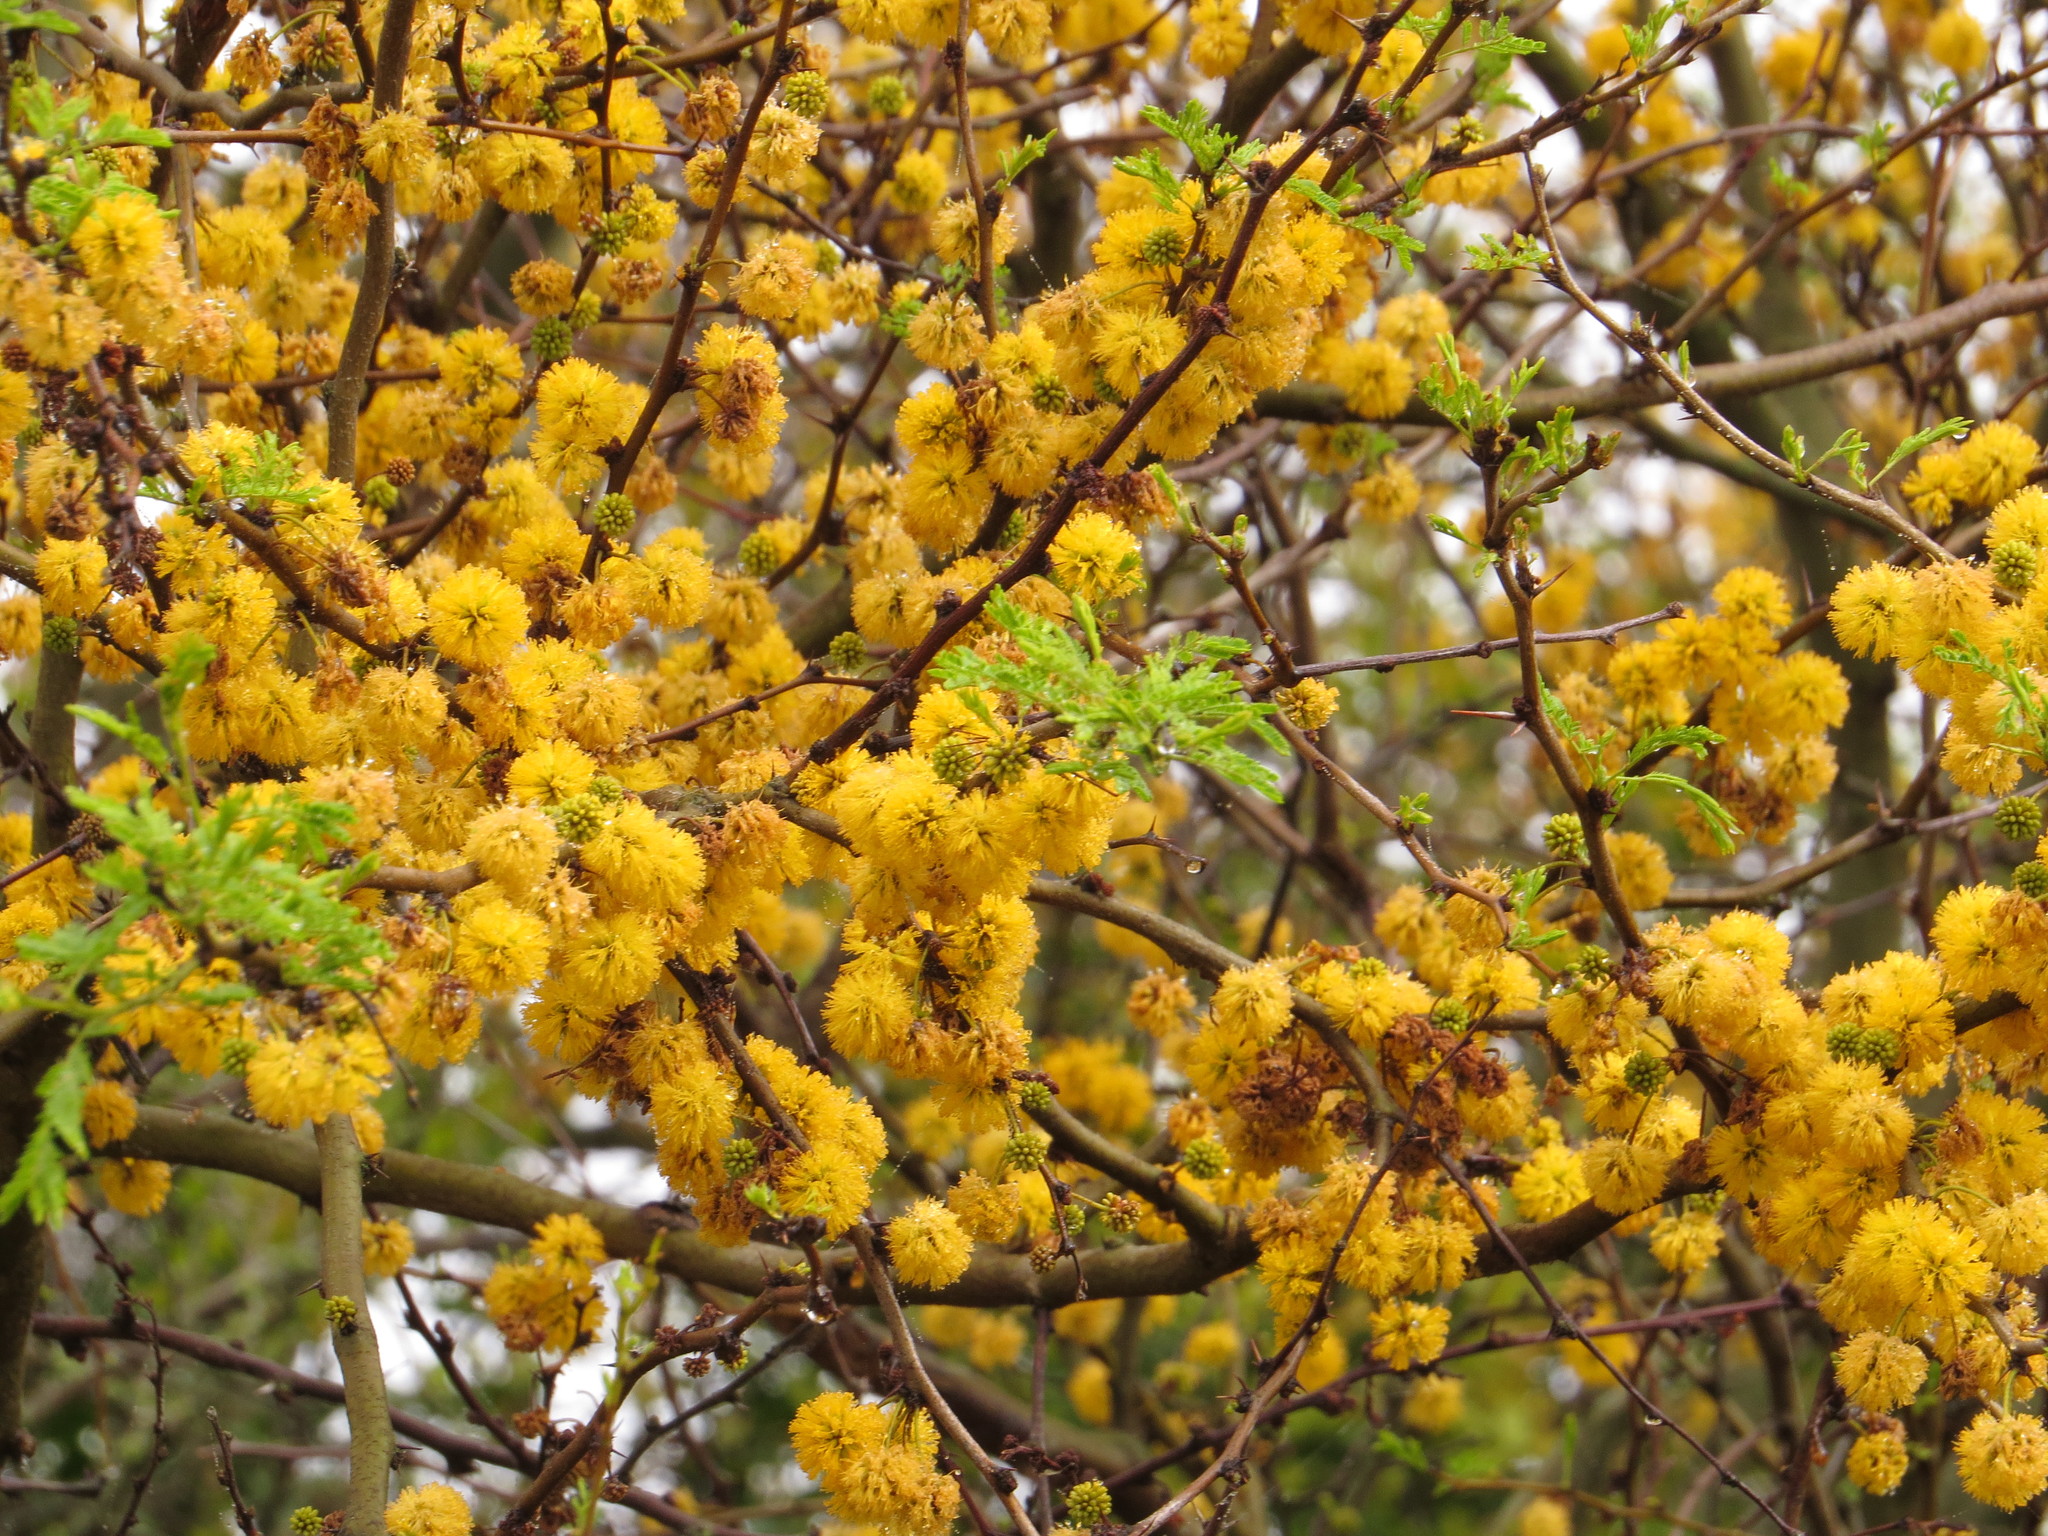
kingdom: Plantae
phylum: Tracheophyta
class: Magnoliopsida
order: Fabales
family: Fabaceae
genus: Vachellia
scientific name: Vachellia caven
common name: Roman cassie
